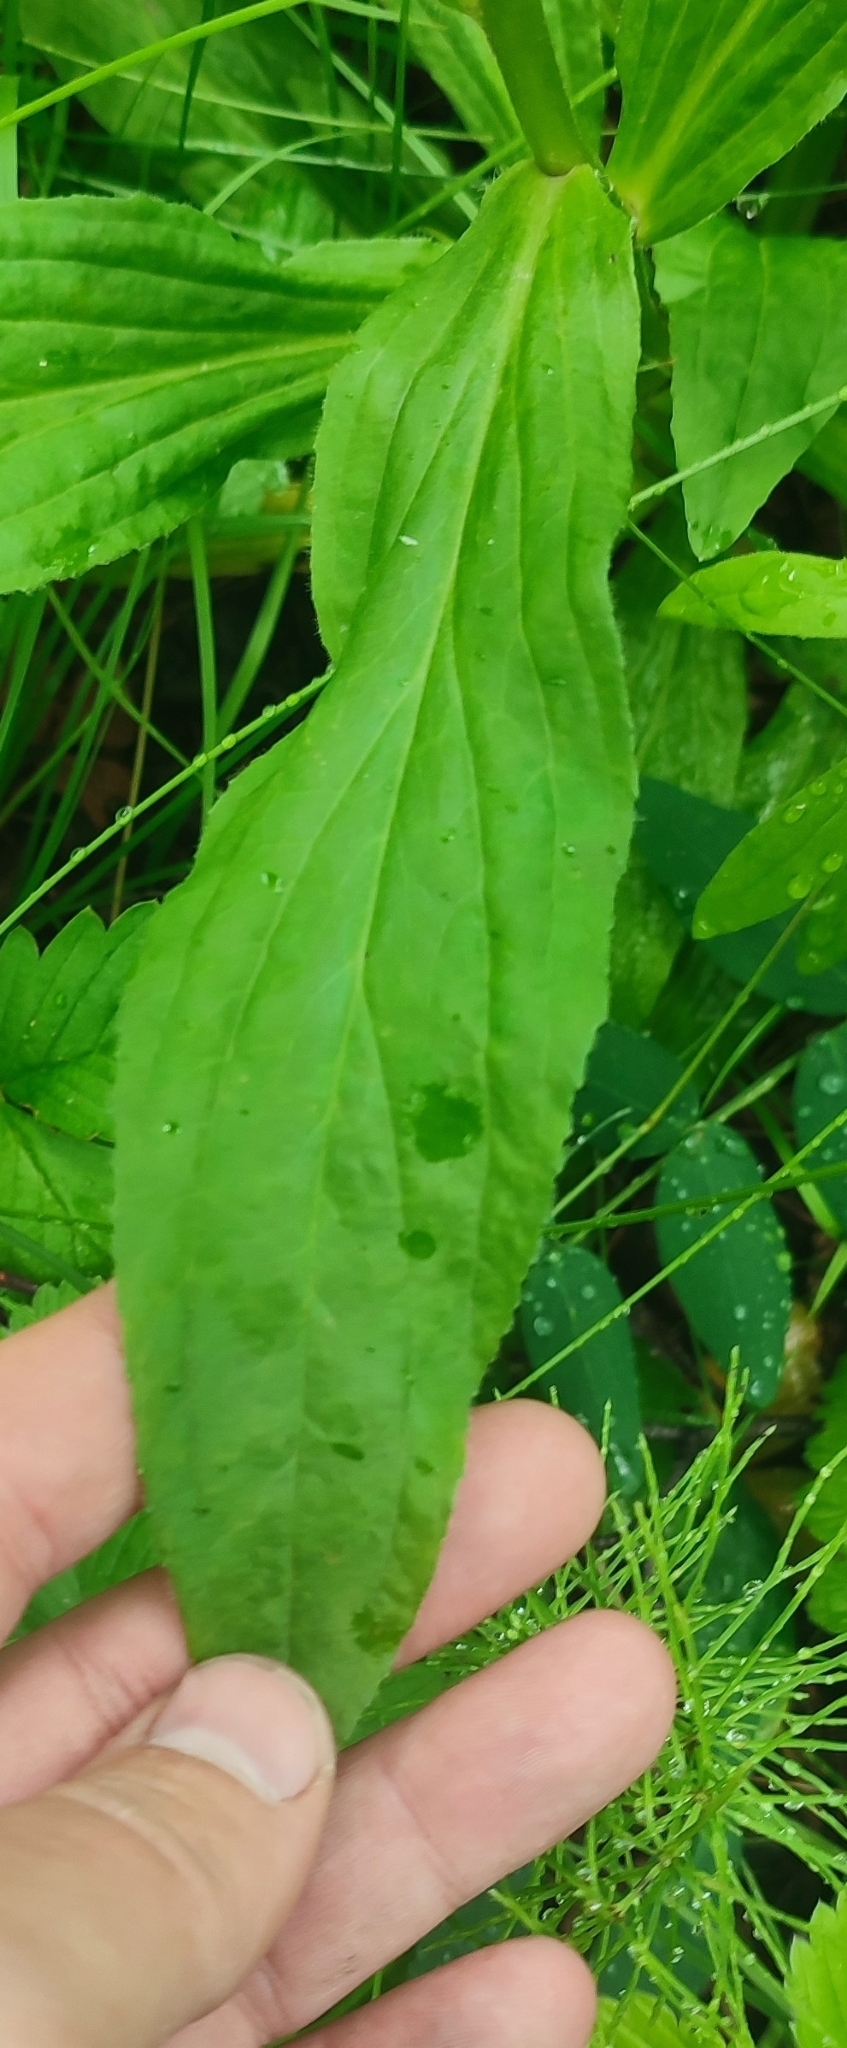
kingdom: Plantae
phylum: Tracheophyta
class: Magnoliopsida
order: Lamiales
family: Plantaginaceae
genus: Digitalis
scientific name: Digitalis grandiflora
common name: Yellow foxglove
